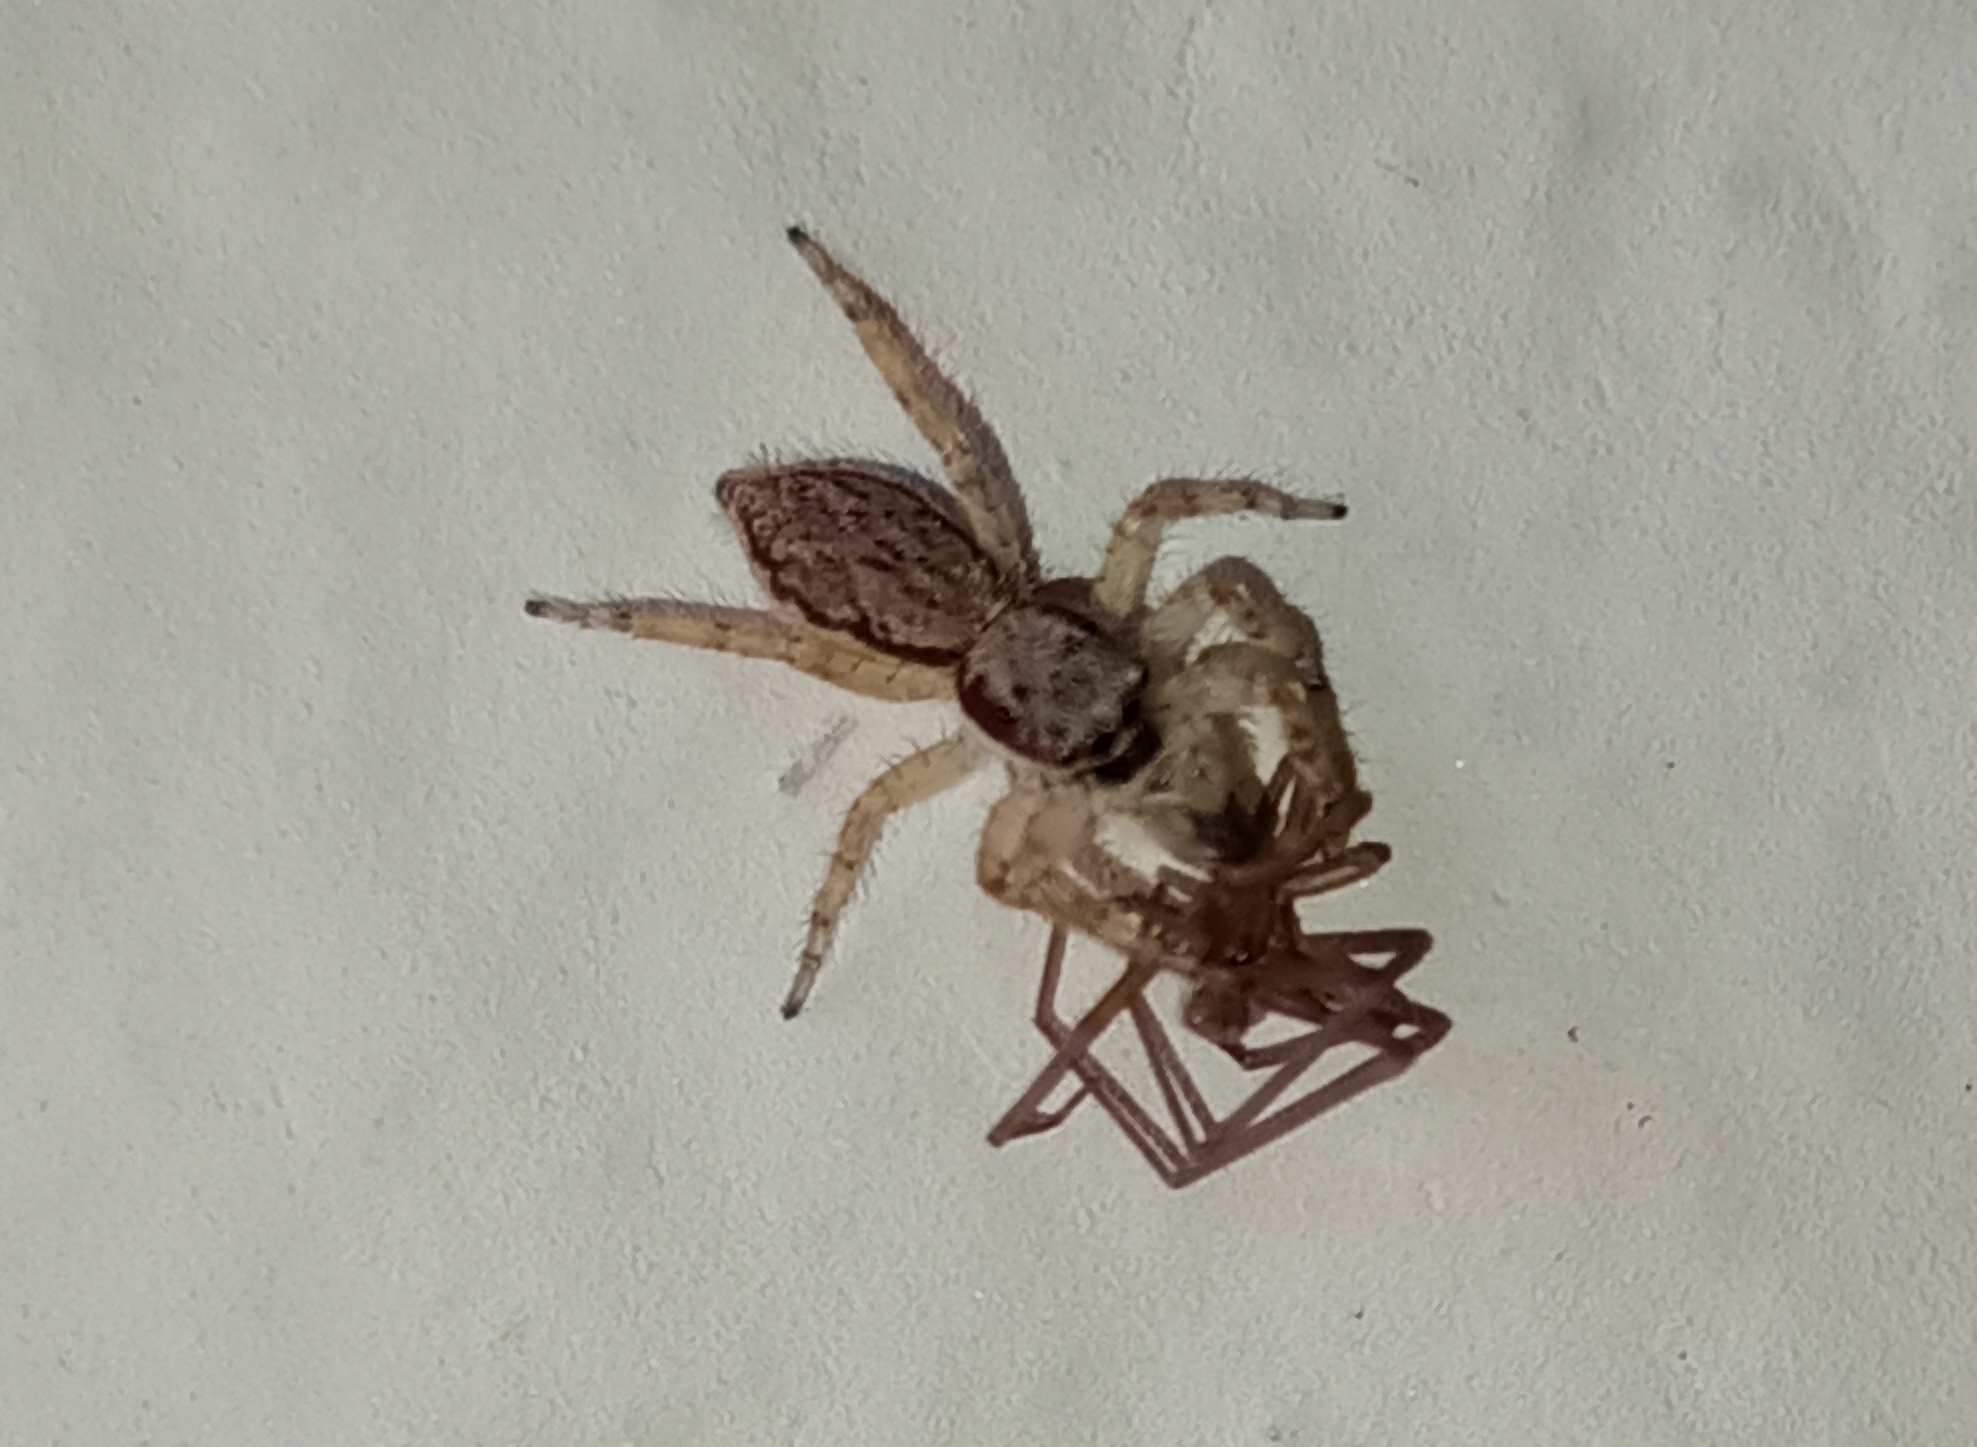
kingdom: Animalia
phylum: Arthropoda
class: Arachnida
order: Araneae
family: Salticidae
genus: Menemerus
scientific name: Menemerus bivittatus
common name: Gray wall jumper
